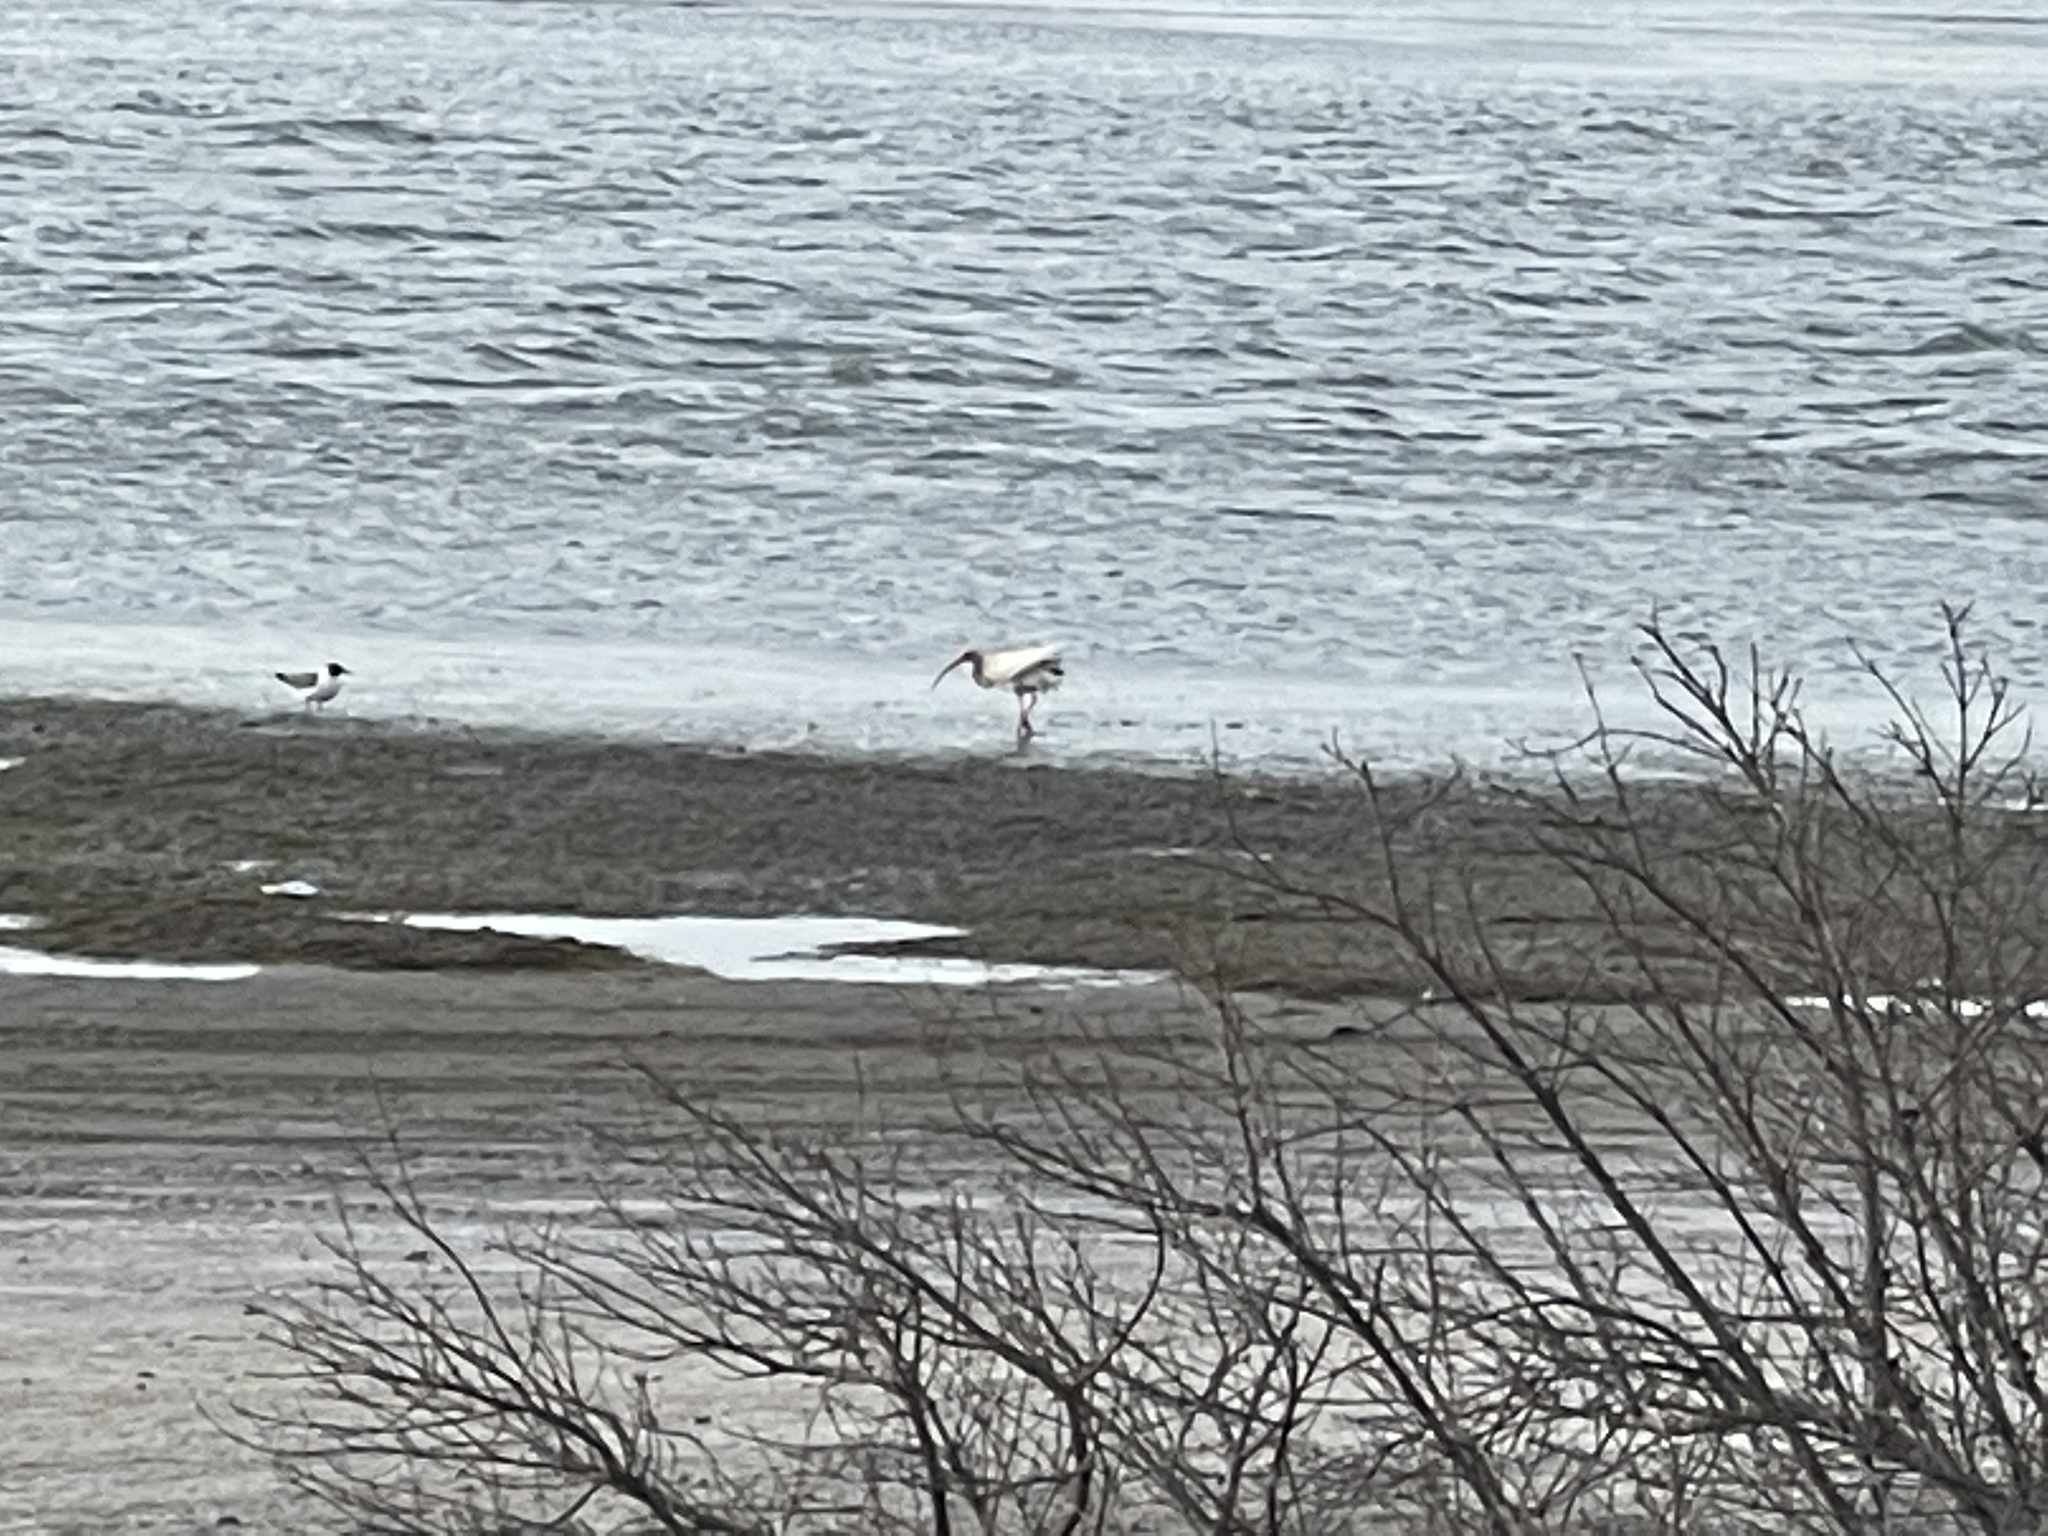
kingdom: Animalia
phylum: Chordata
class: Aves
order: Pelecaniformes
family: Threskiornithidae
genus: Eudocimus
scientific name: Eudocimus albus
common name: White ibis
